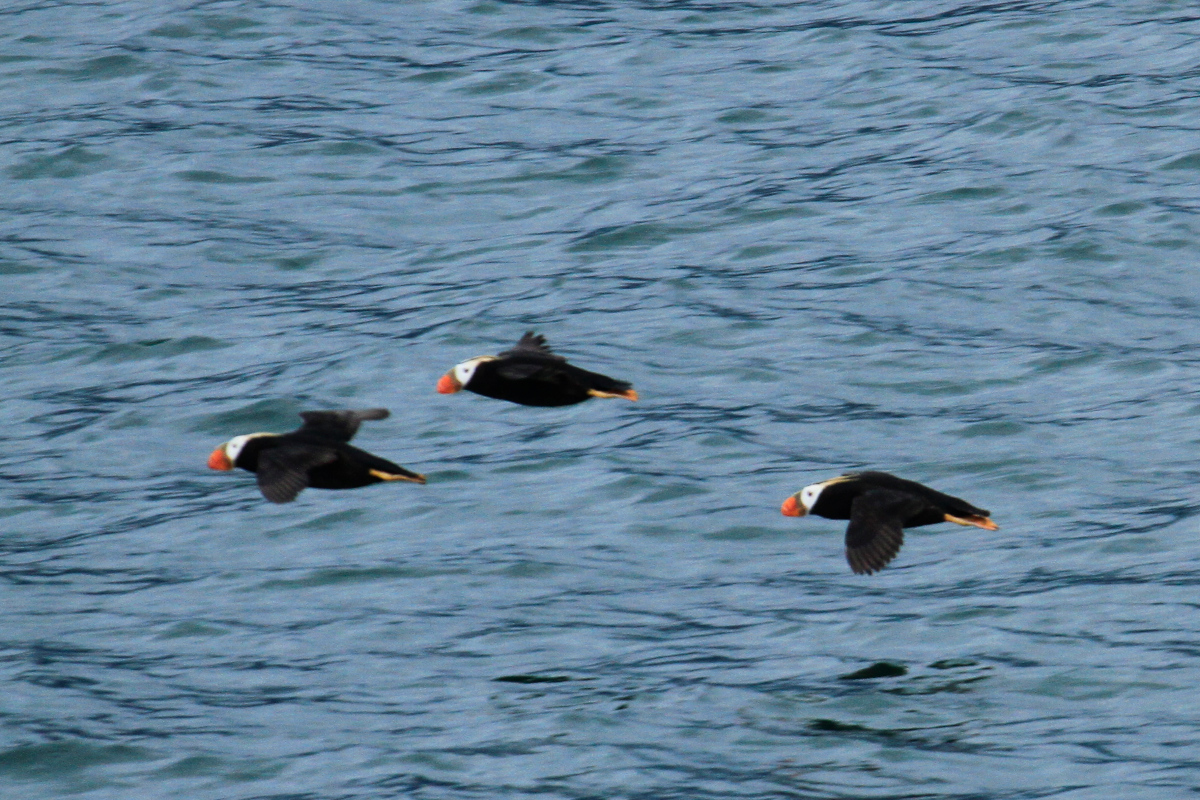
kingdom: Animalia
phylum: Chordata
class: Aves
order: Charadriiformes
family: Alcidae
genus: Fratercula
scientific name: Fratercula cirrhata
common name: Tufted puffin
